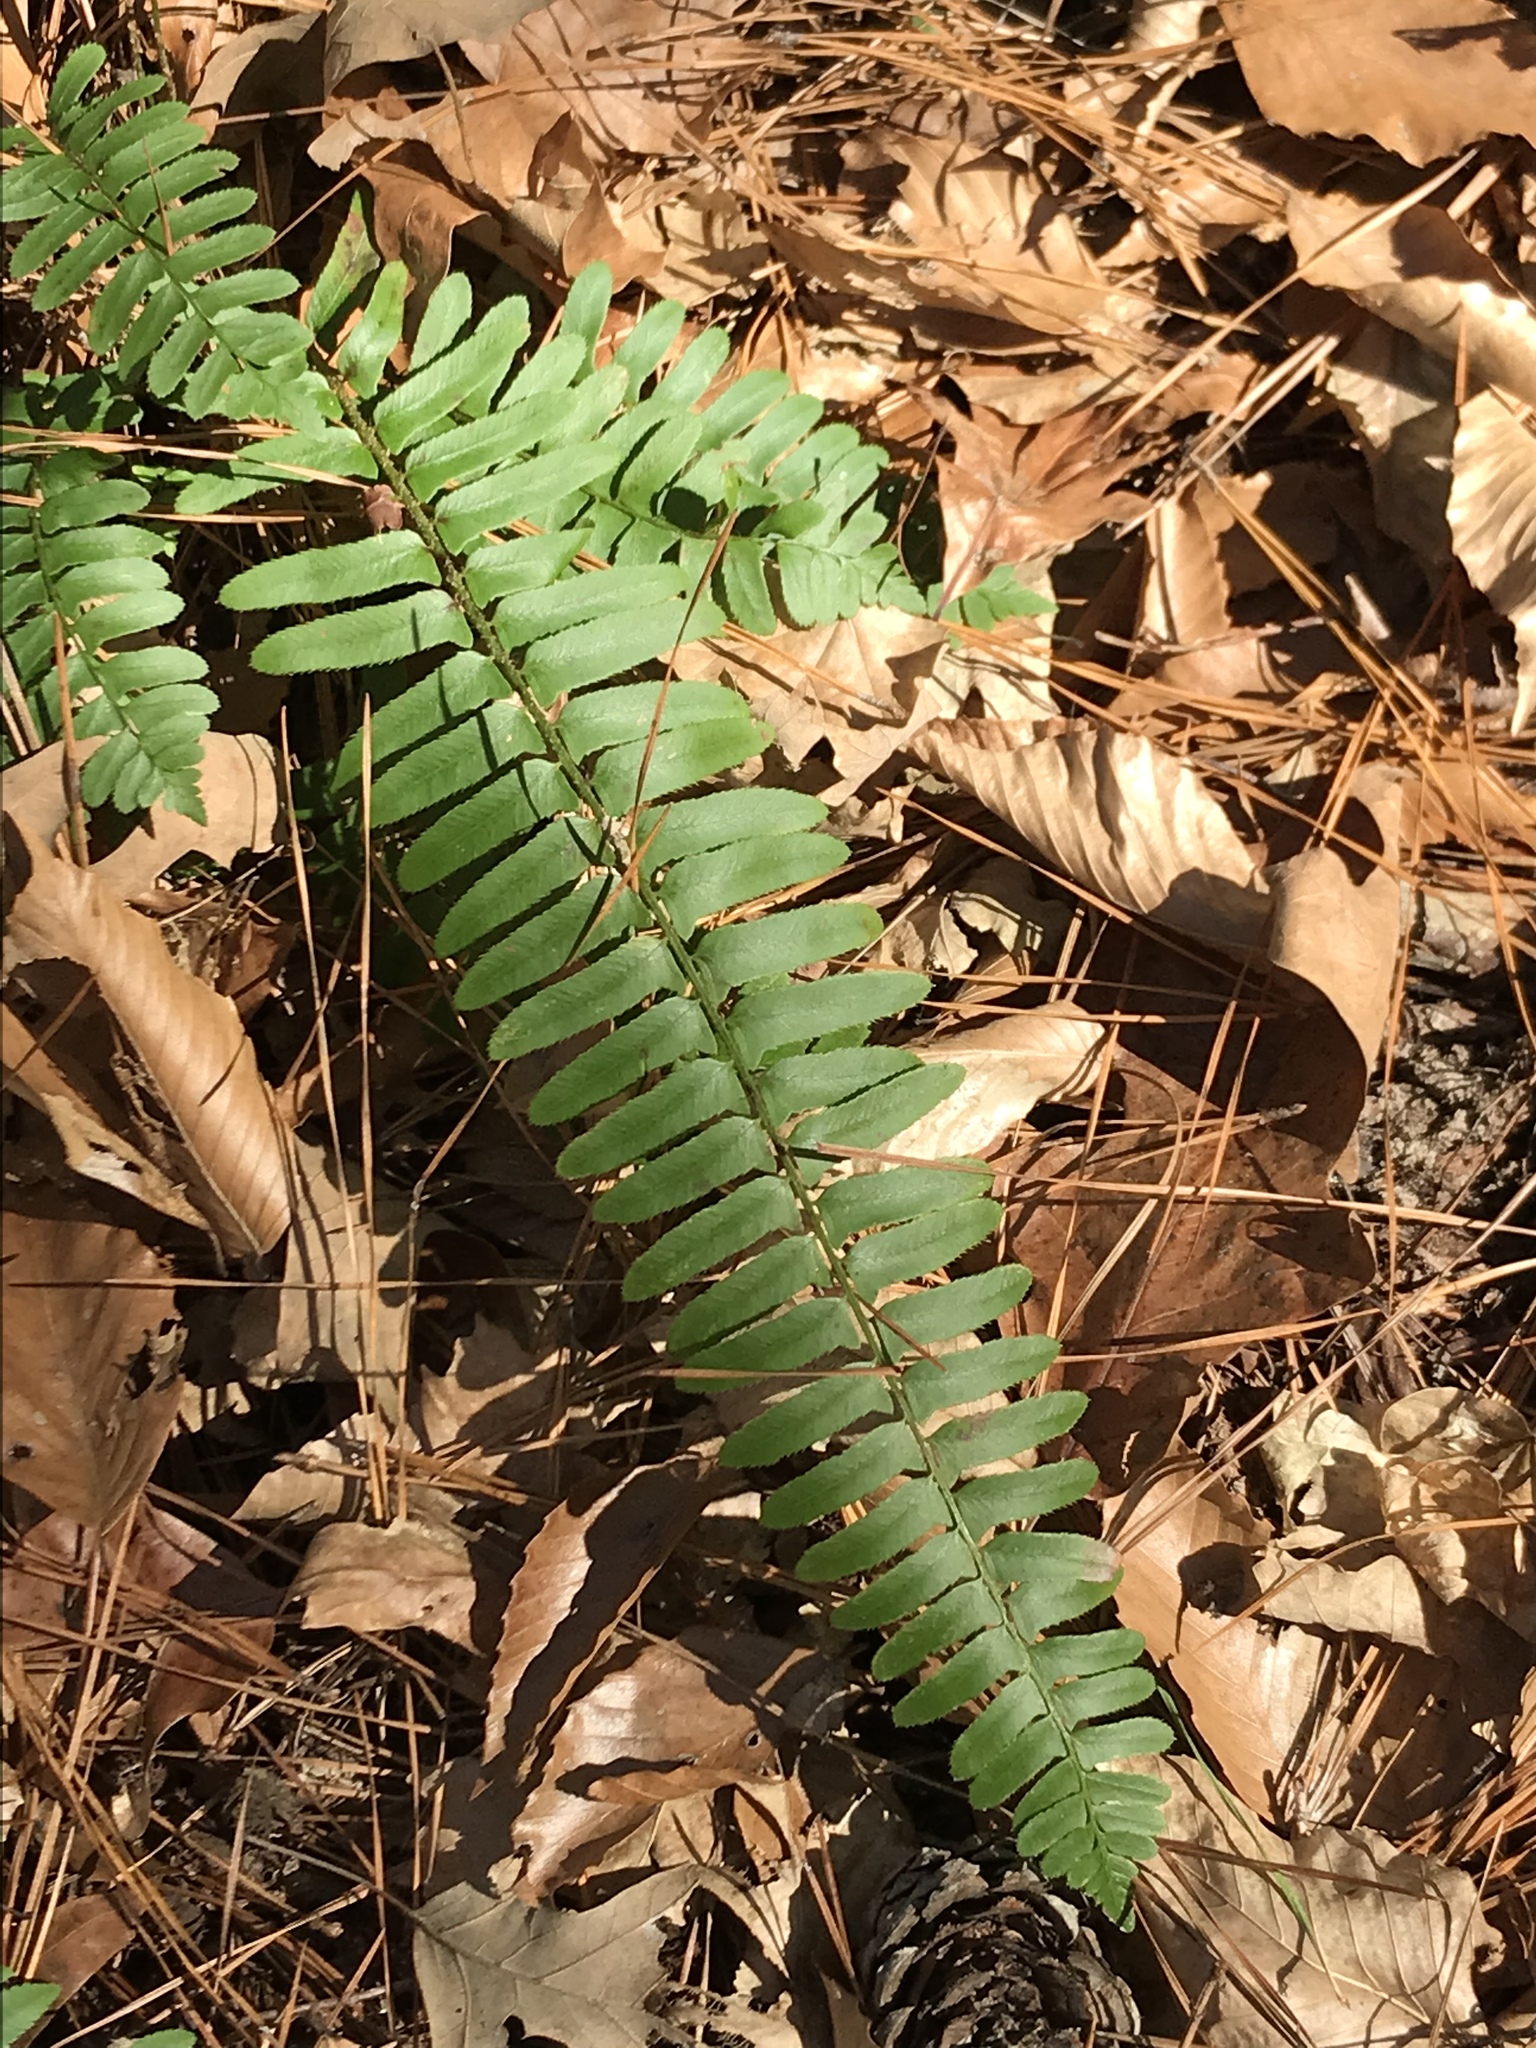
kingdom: Plantae
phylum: Tracheophyta
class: Polypodiopsida
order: Polypodiales
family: Dryopteridaceae
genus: Polystichum
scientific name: Polystichum acrostichoides
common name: Christmas fern
